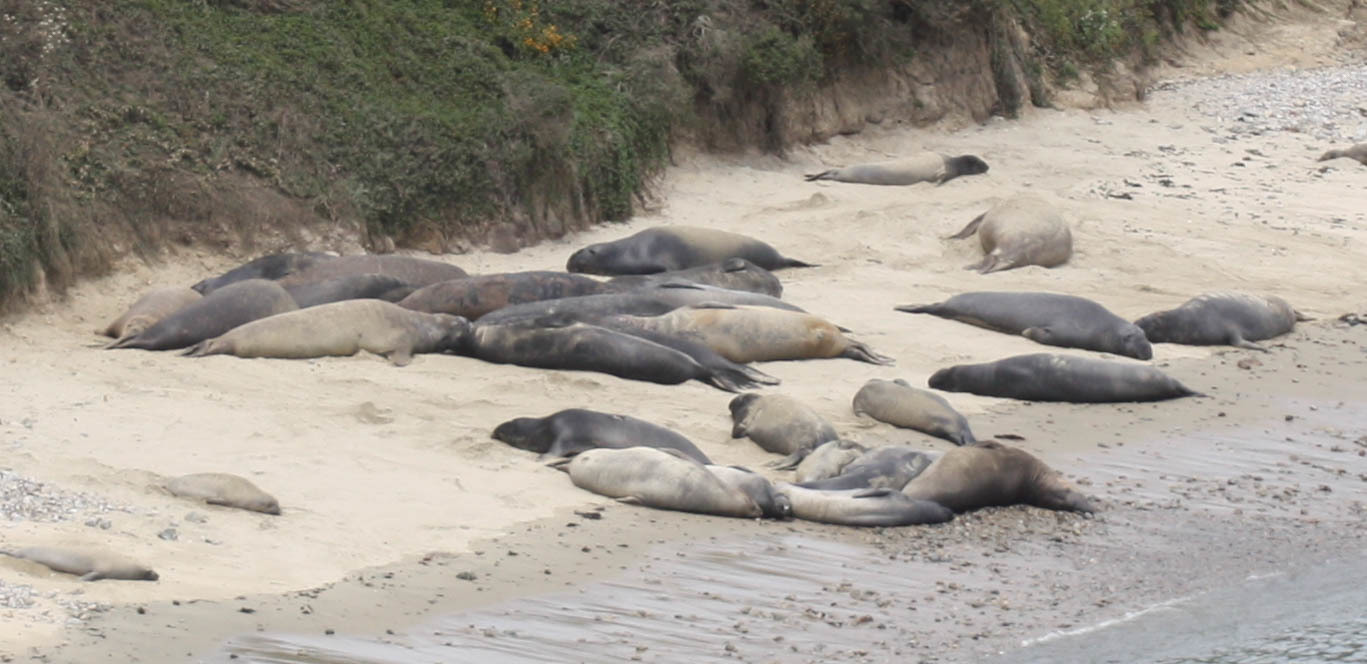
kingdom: Animalia
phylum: Chordata
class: Mammalia
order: Carnivora
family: Phocidae
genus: Mirounga
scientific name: Mirounga angustirostris
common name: Northern elephant seal
